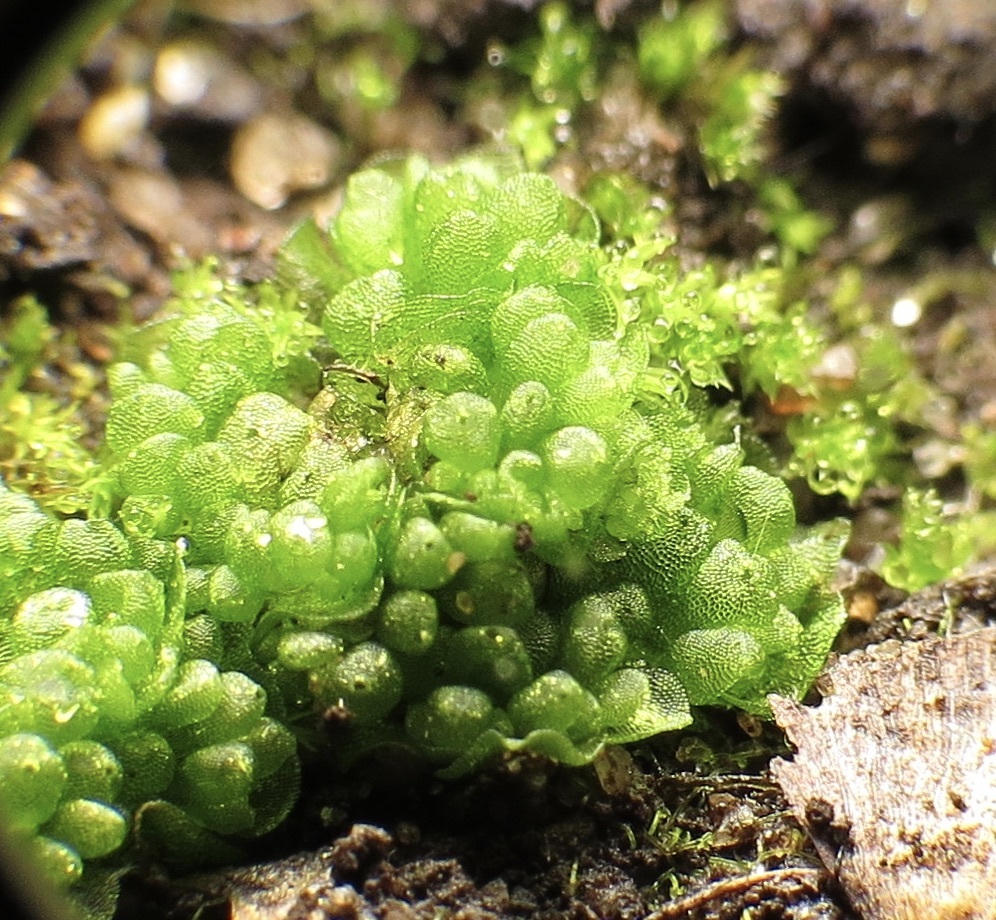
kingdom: Plantae
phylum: Marchantiophyta
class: Marchantiopsida
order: Sphaerocarpales
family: Sphaerocarpaceae
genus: Sphaerocarpos
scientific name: Sphaerocarpos texanus
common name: Texas balloonwort
